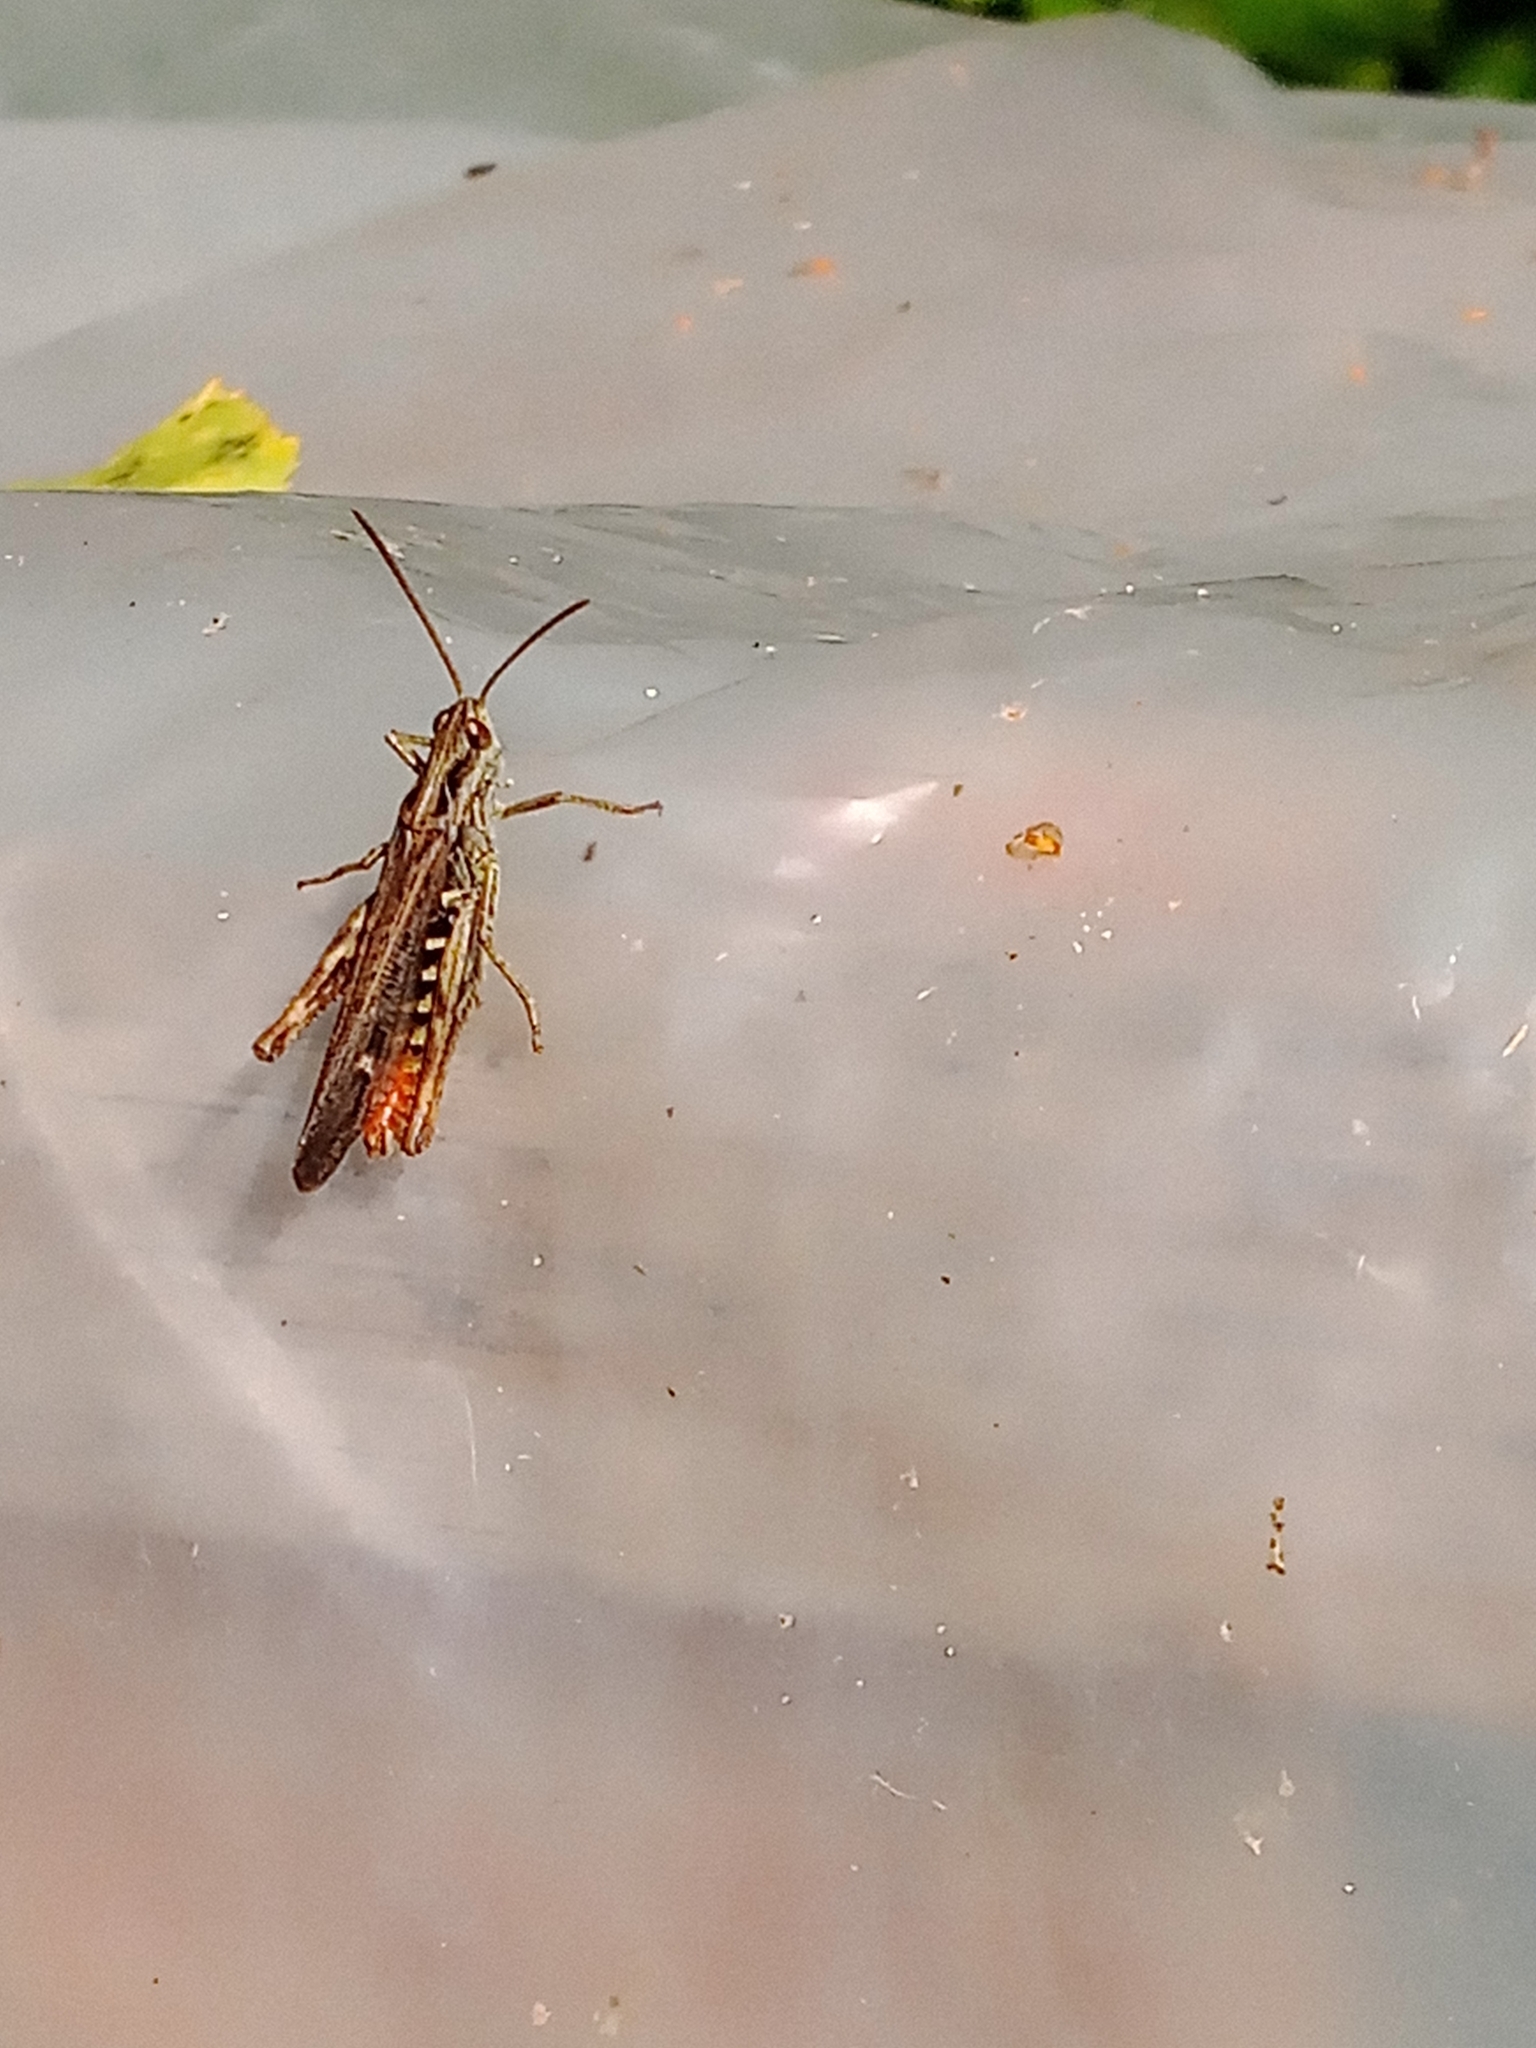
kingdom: Animalia
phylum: Arthropoda
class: Insecta
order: Orthoptera
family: Acrididae
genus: Chorthippus
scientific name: Chorthippus brunneus
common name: Field grasshopper
